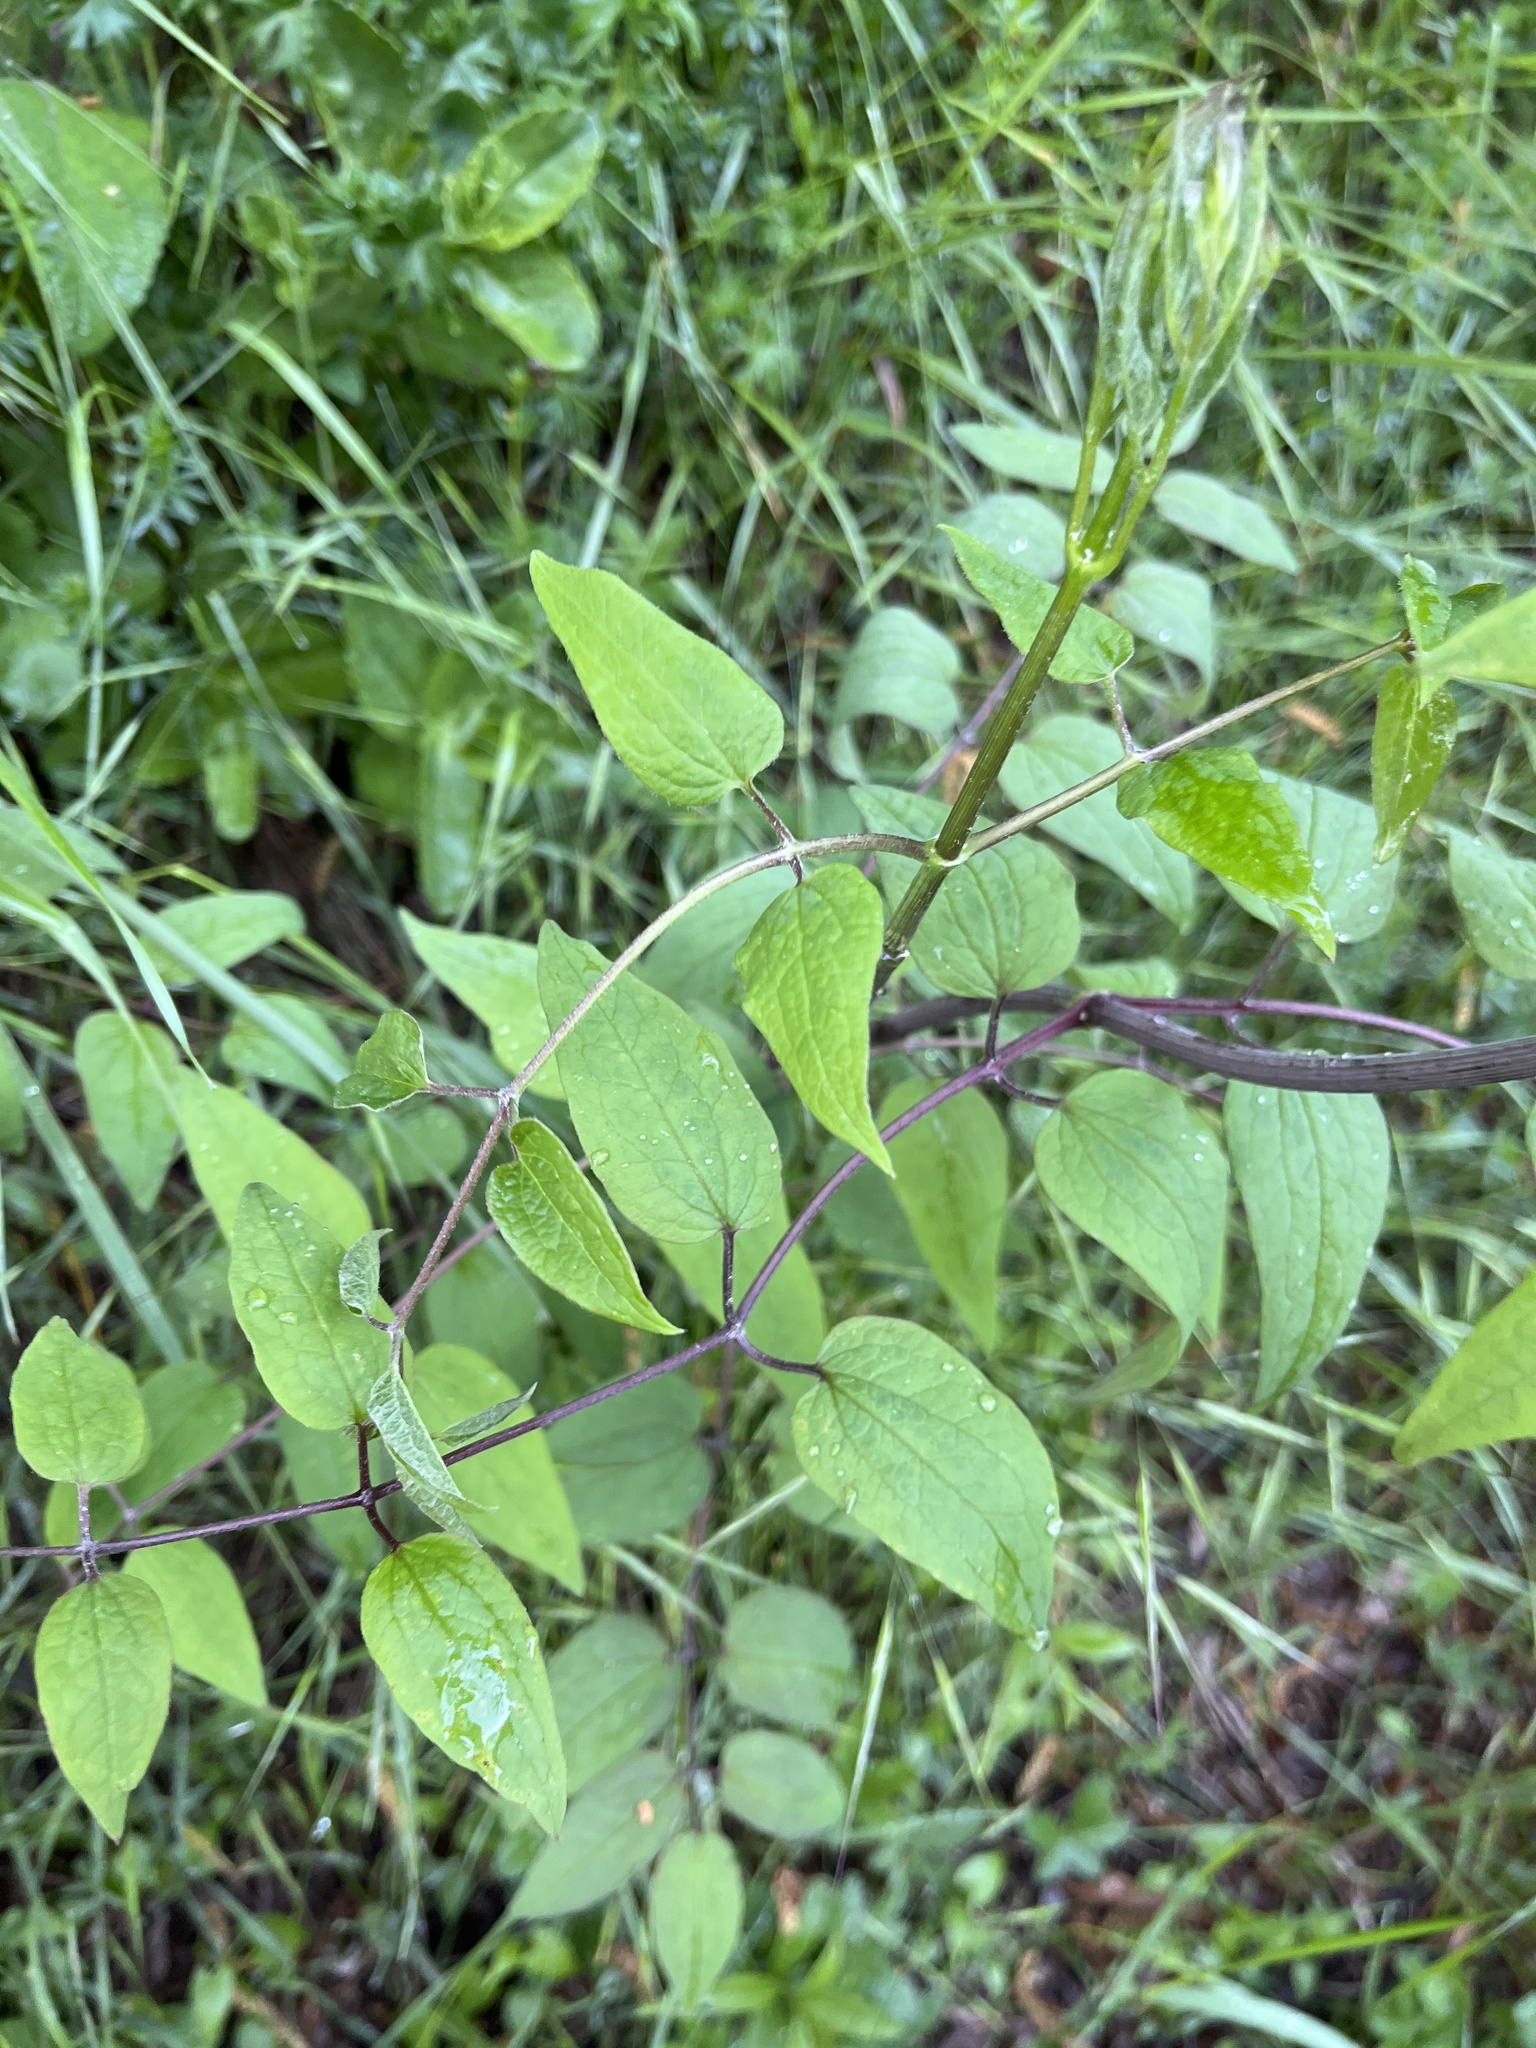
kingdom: Plantae
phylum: Tracheophyta
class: Magnoliopsida
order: Ranunculales
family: Ranunculaceae
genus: Clematis
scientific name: Clematis recta
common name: Ground clematis
